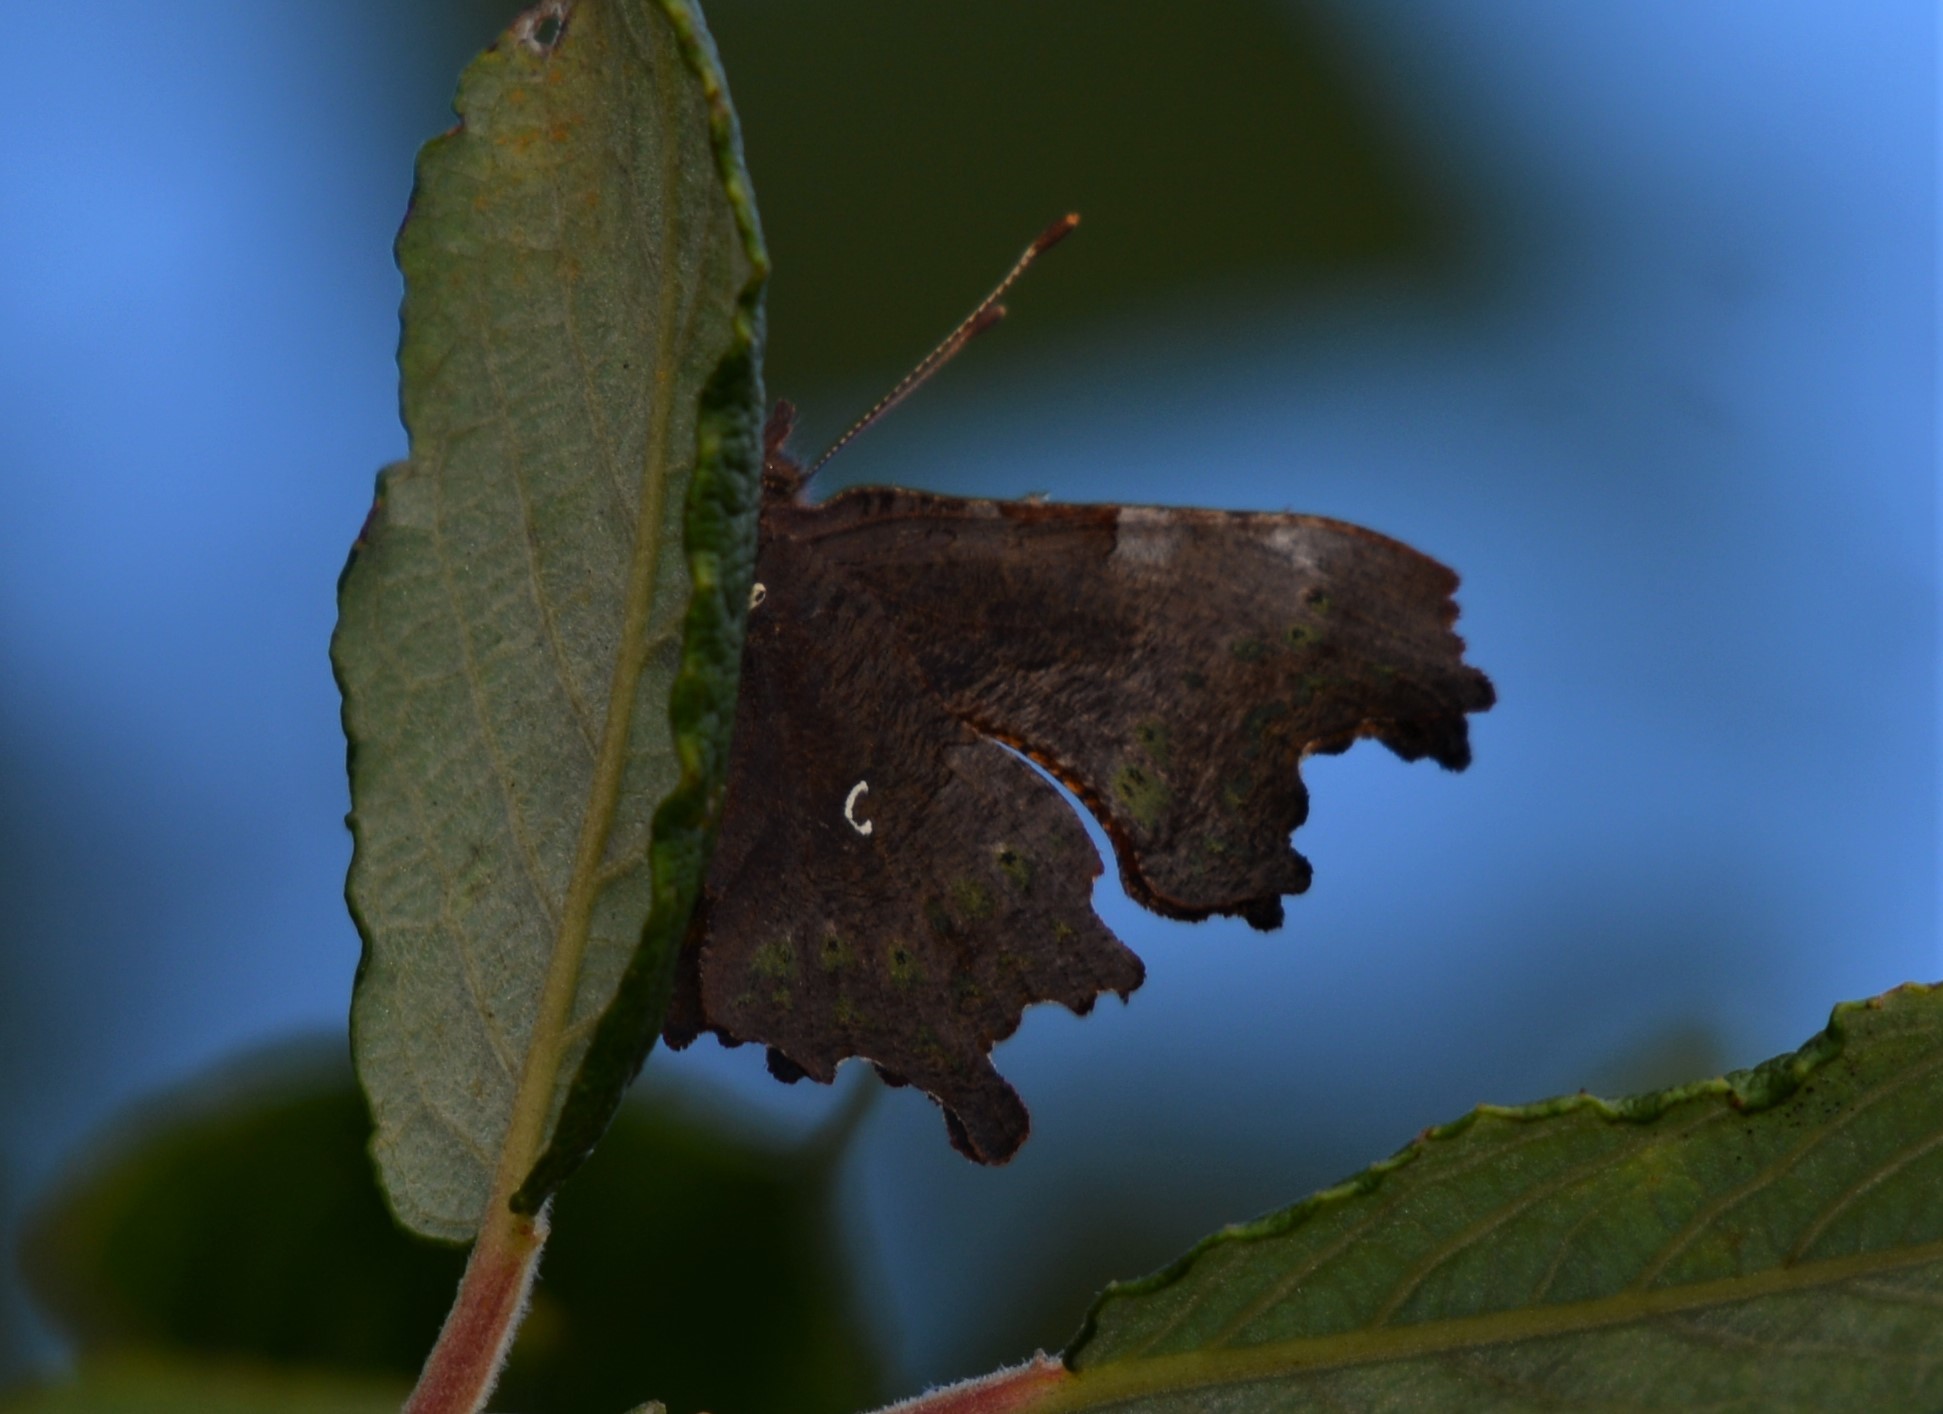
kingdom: Animalia
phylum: Arthropoda
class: Insecta
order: Lepidoptera
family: Nymphalidae
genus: Polygonia
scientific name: Polygonia c-album
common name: Comma
